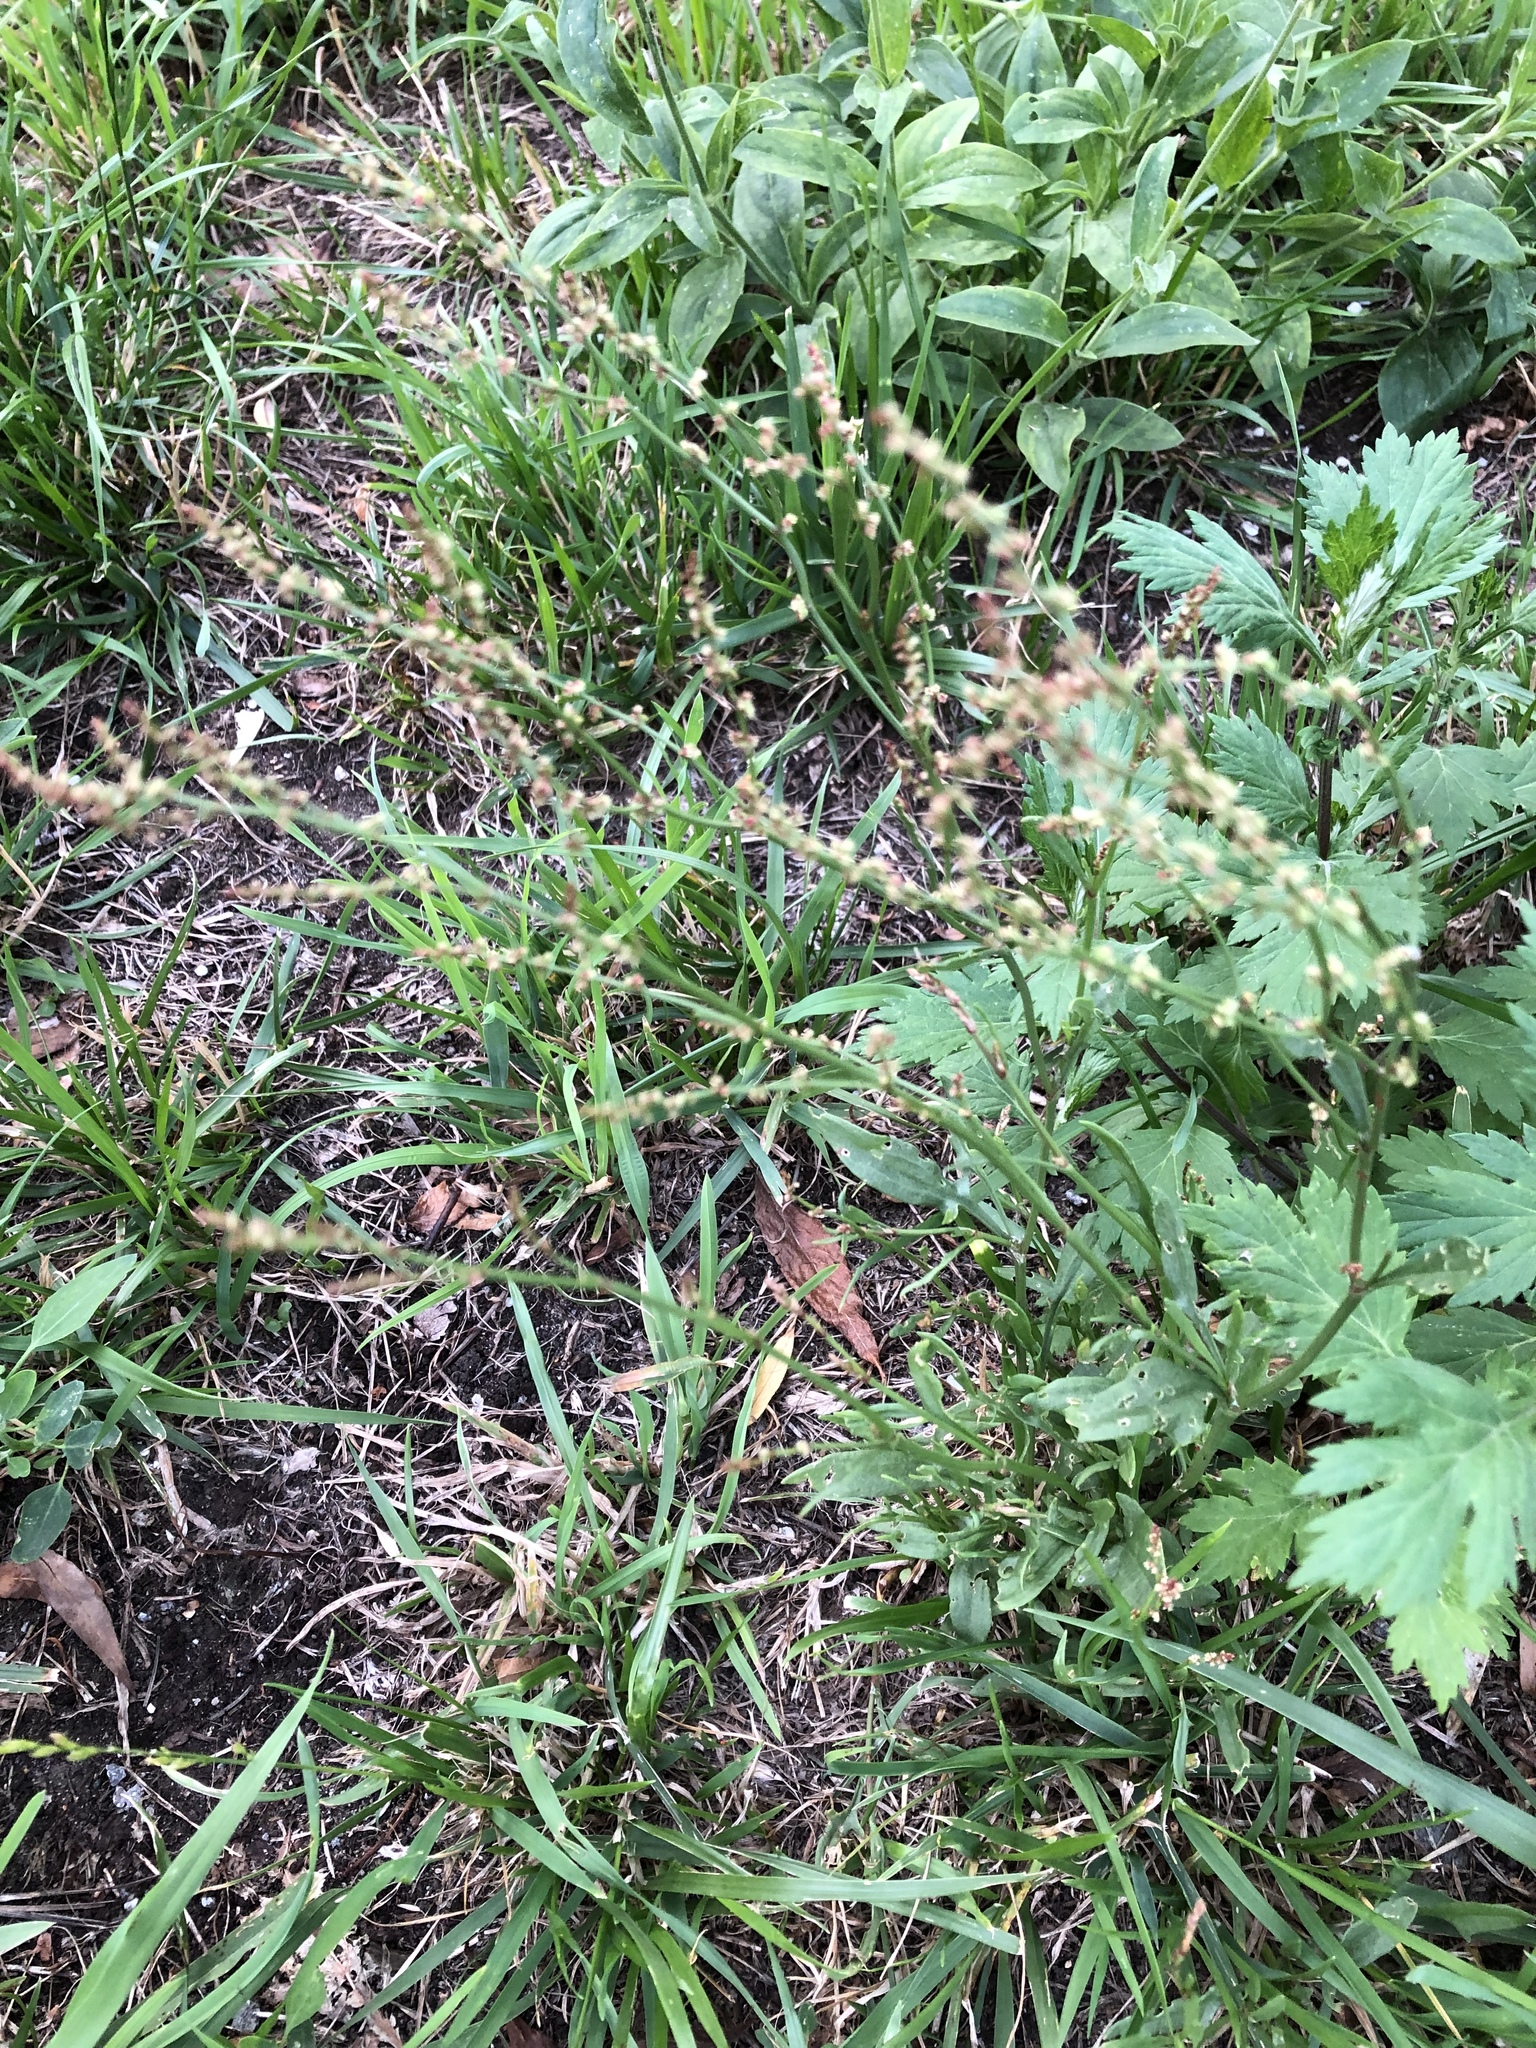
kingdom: Plantae
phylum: Tracheophyta
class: Magnoliopsida
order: Caryophyllales
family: Polygonaceae
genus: Rumex
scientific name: Rumex acetosella
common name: Common sheep sorrel
